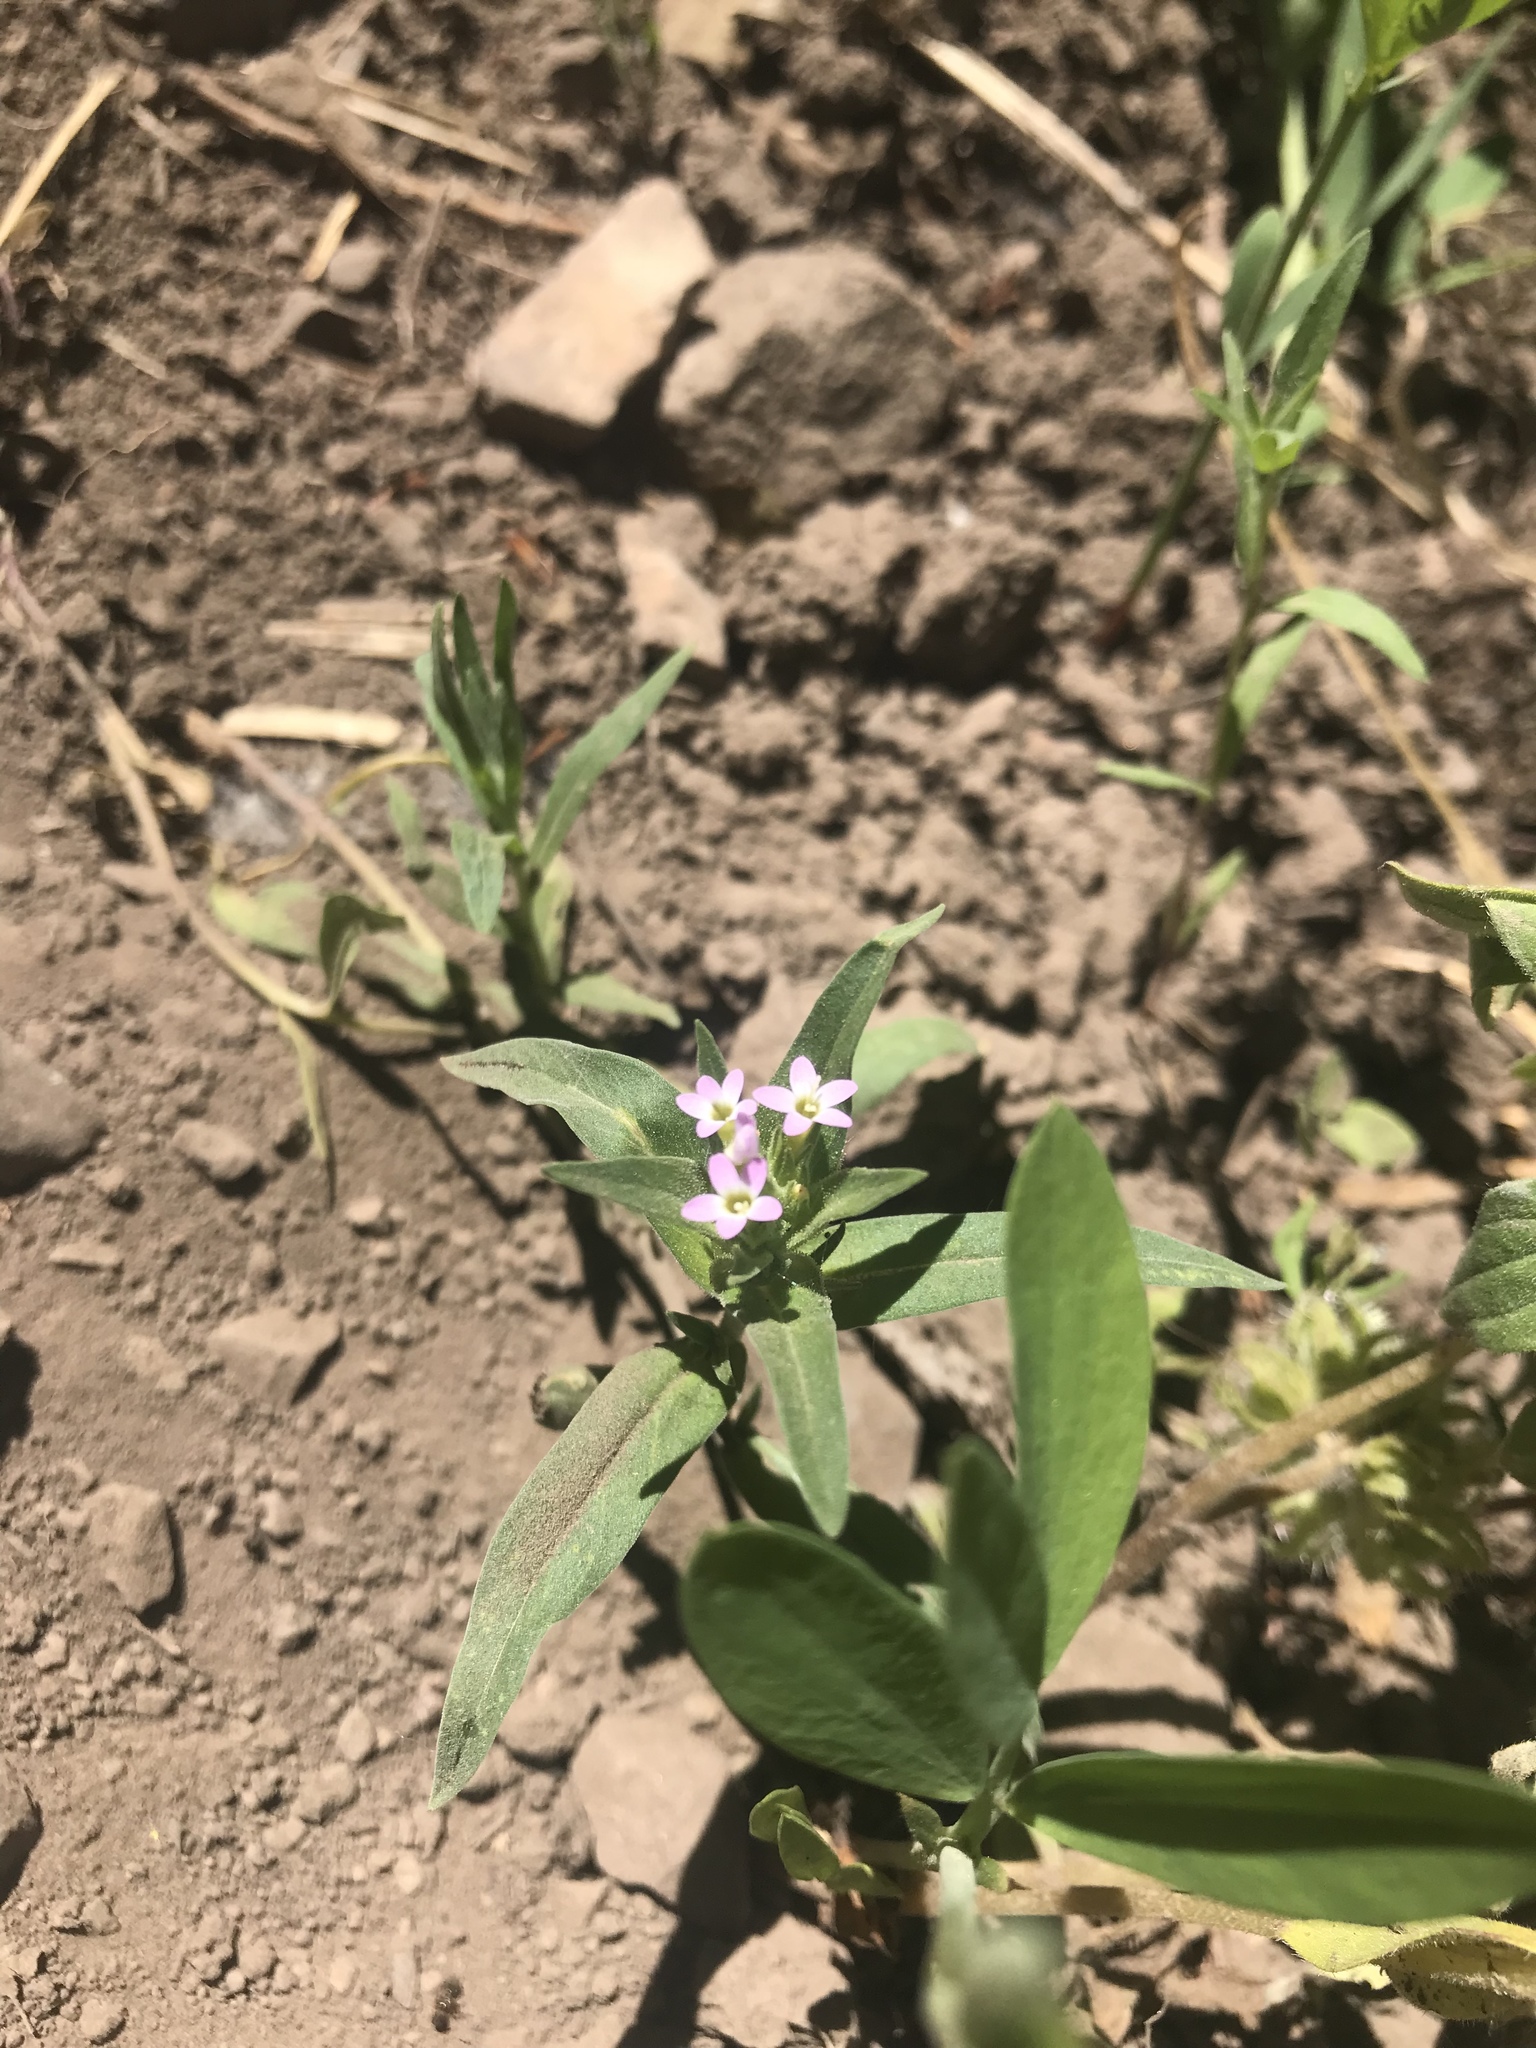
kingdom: Plantae
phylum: Tracheophyta
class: Magnoliopsida
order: Ericales
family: Polemoniaceae
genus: Collomia
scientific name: Collomia linearis
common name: Tiny trumpet
